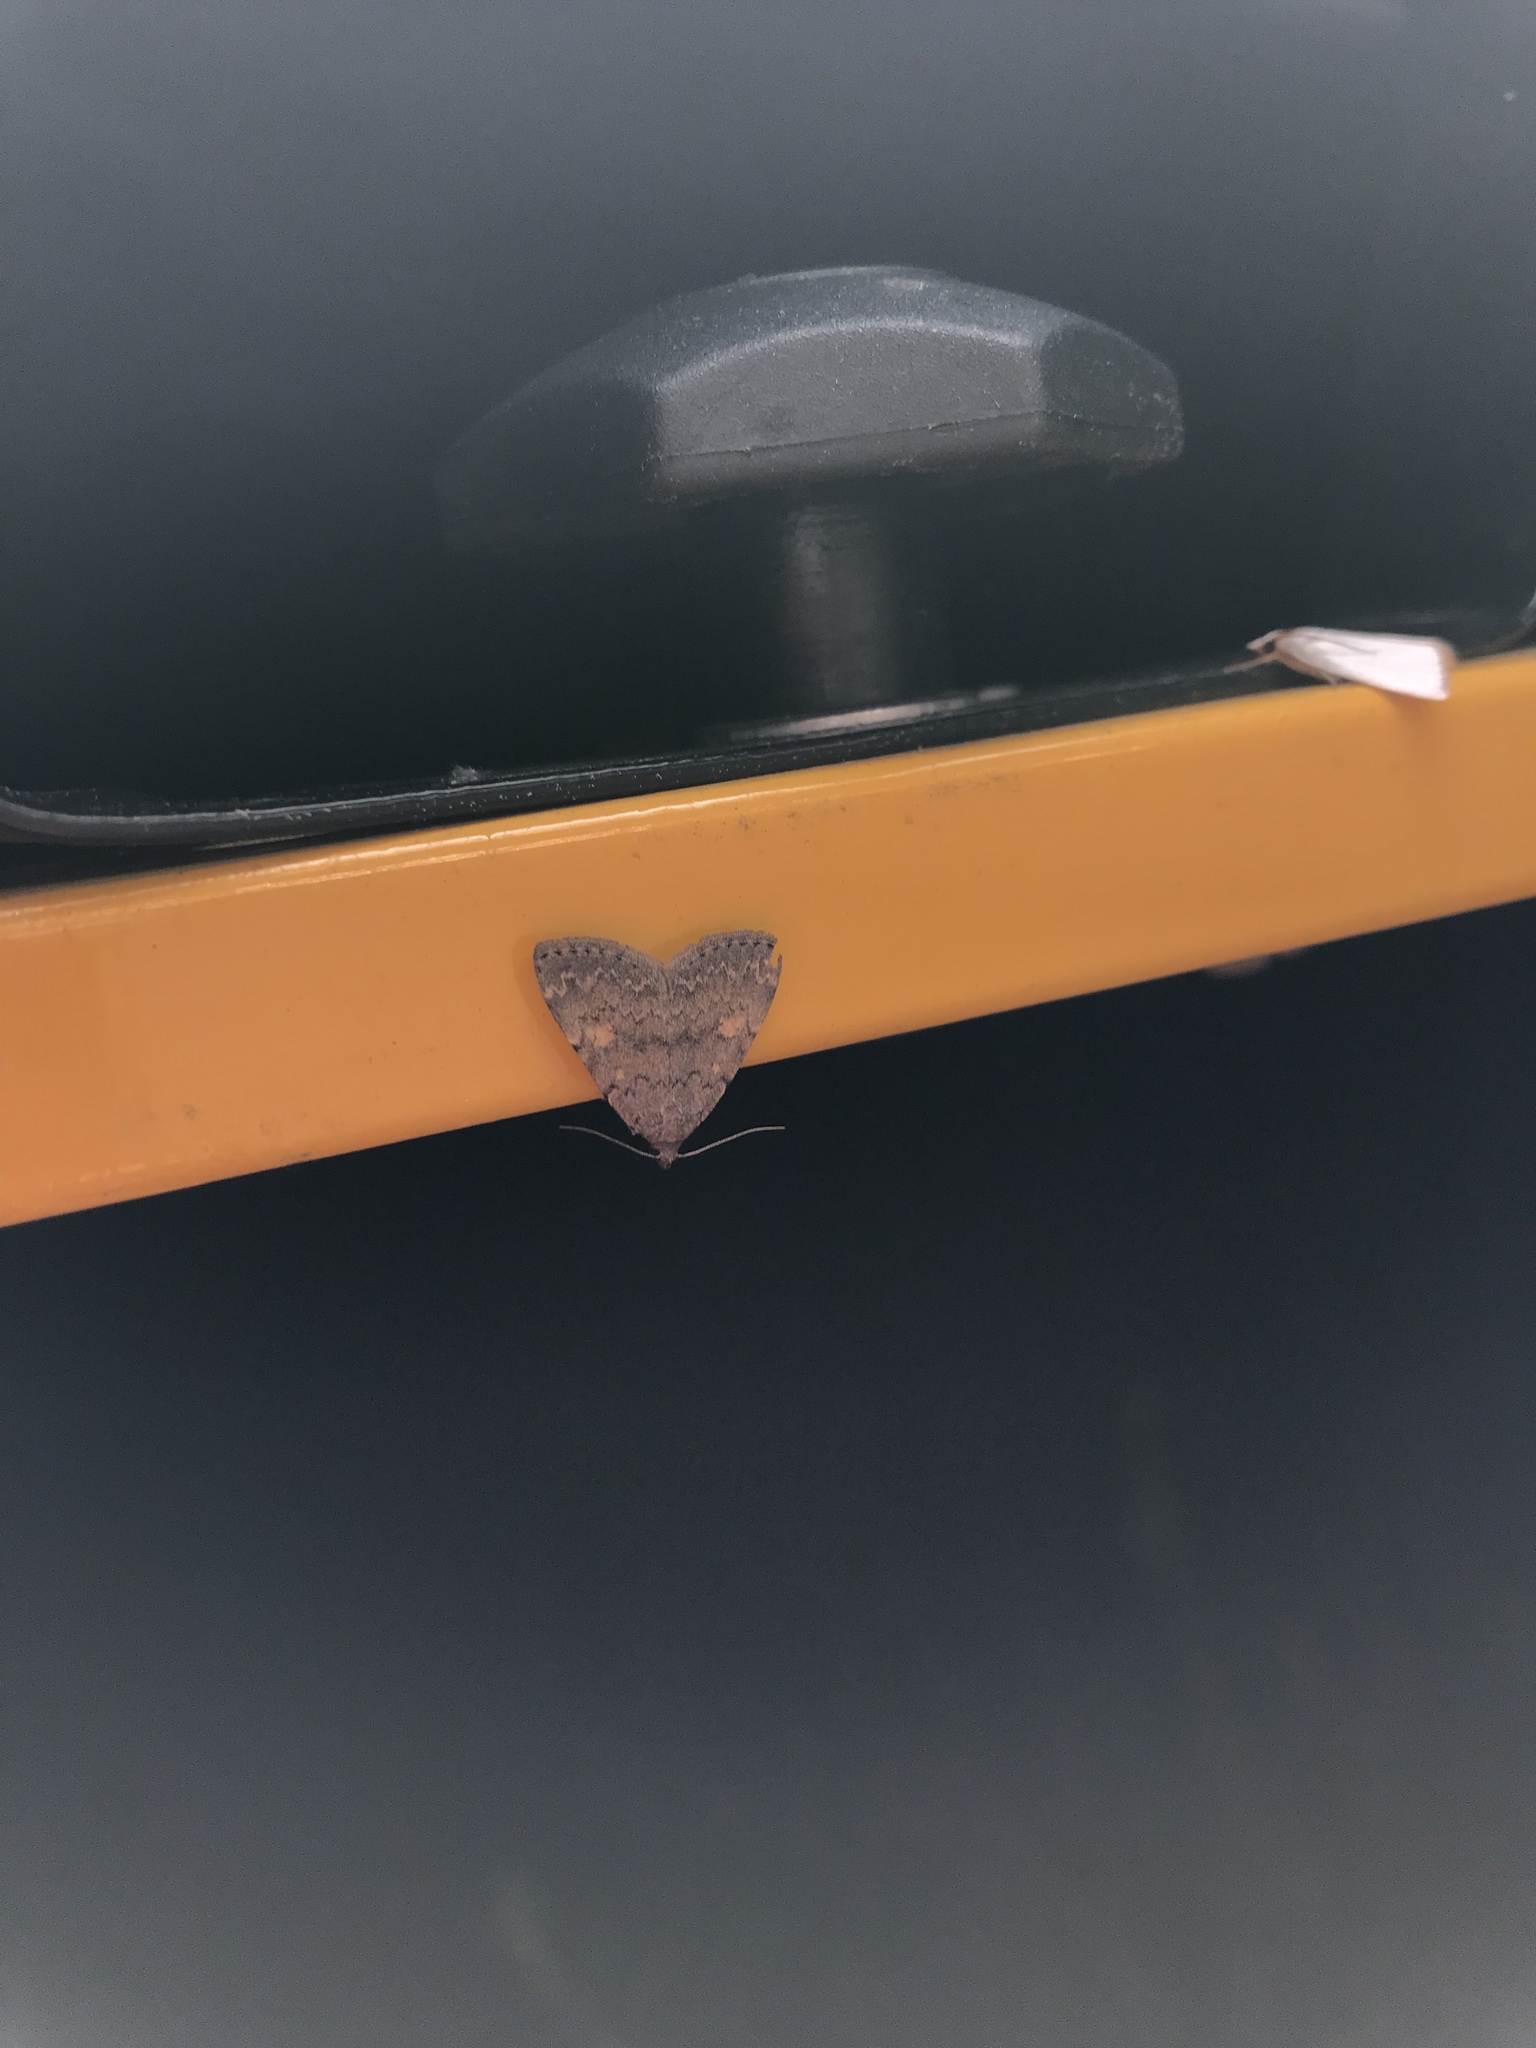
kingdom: Animalia
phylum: Arthropoda
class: Insecta
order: Lepidoptera
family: Erebidae
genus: Idia
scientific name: Idia aemula
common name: Common idia moth
